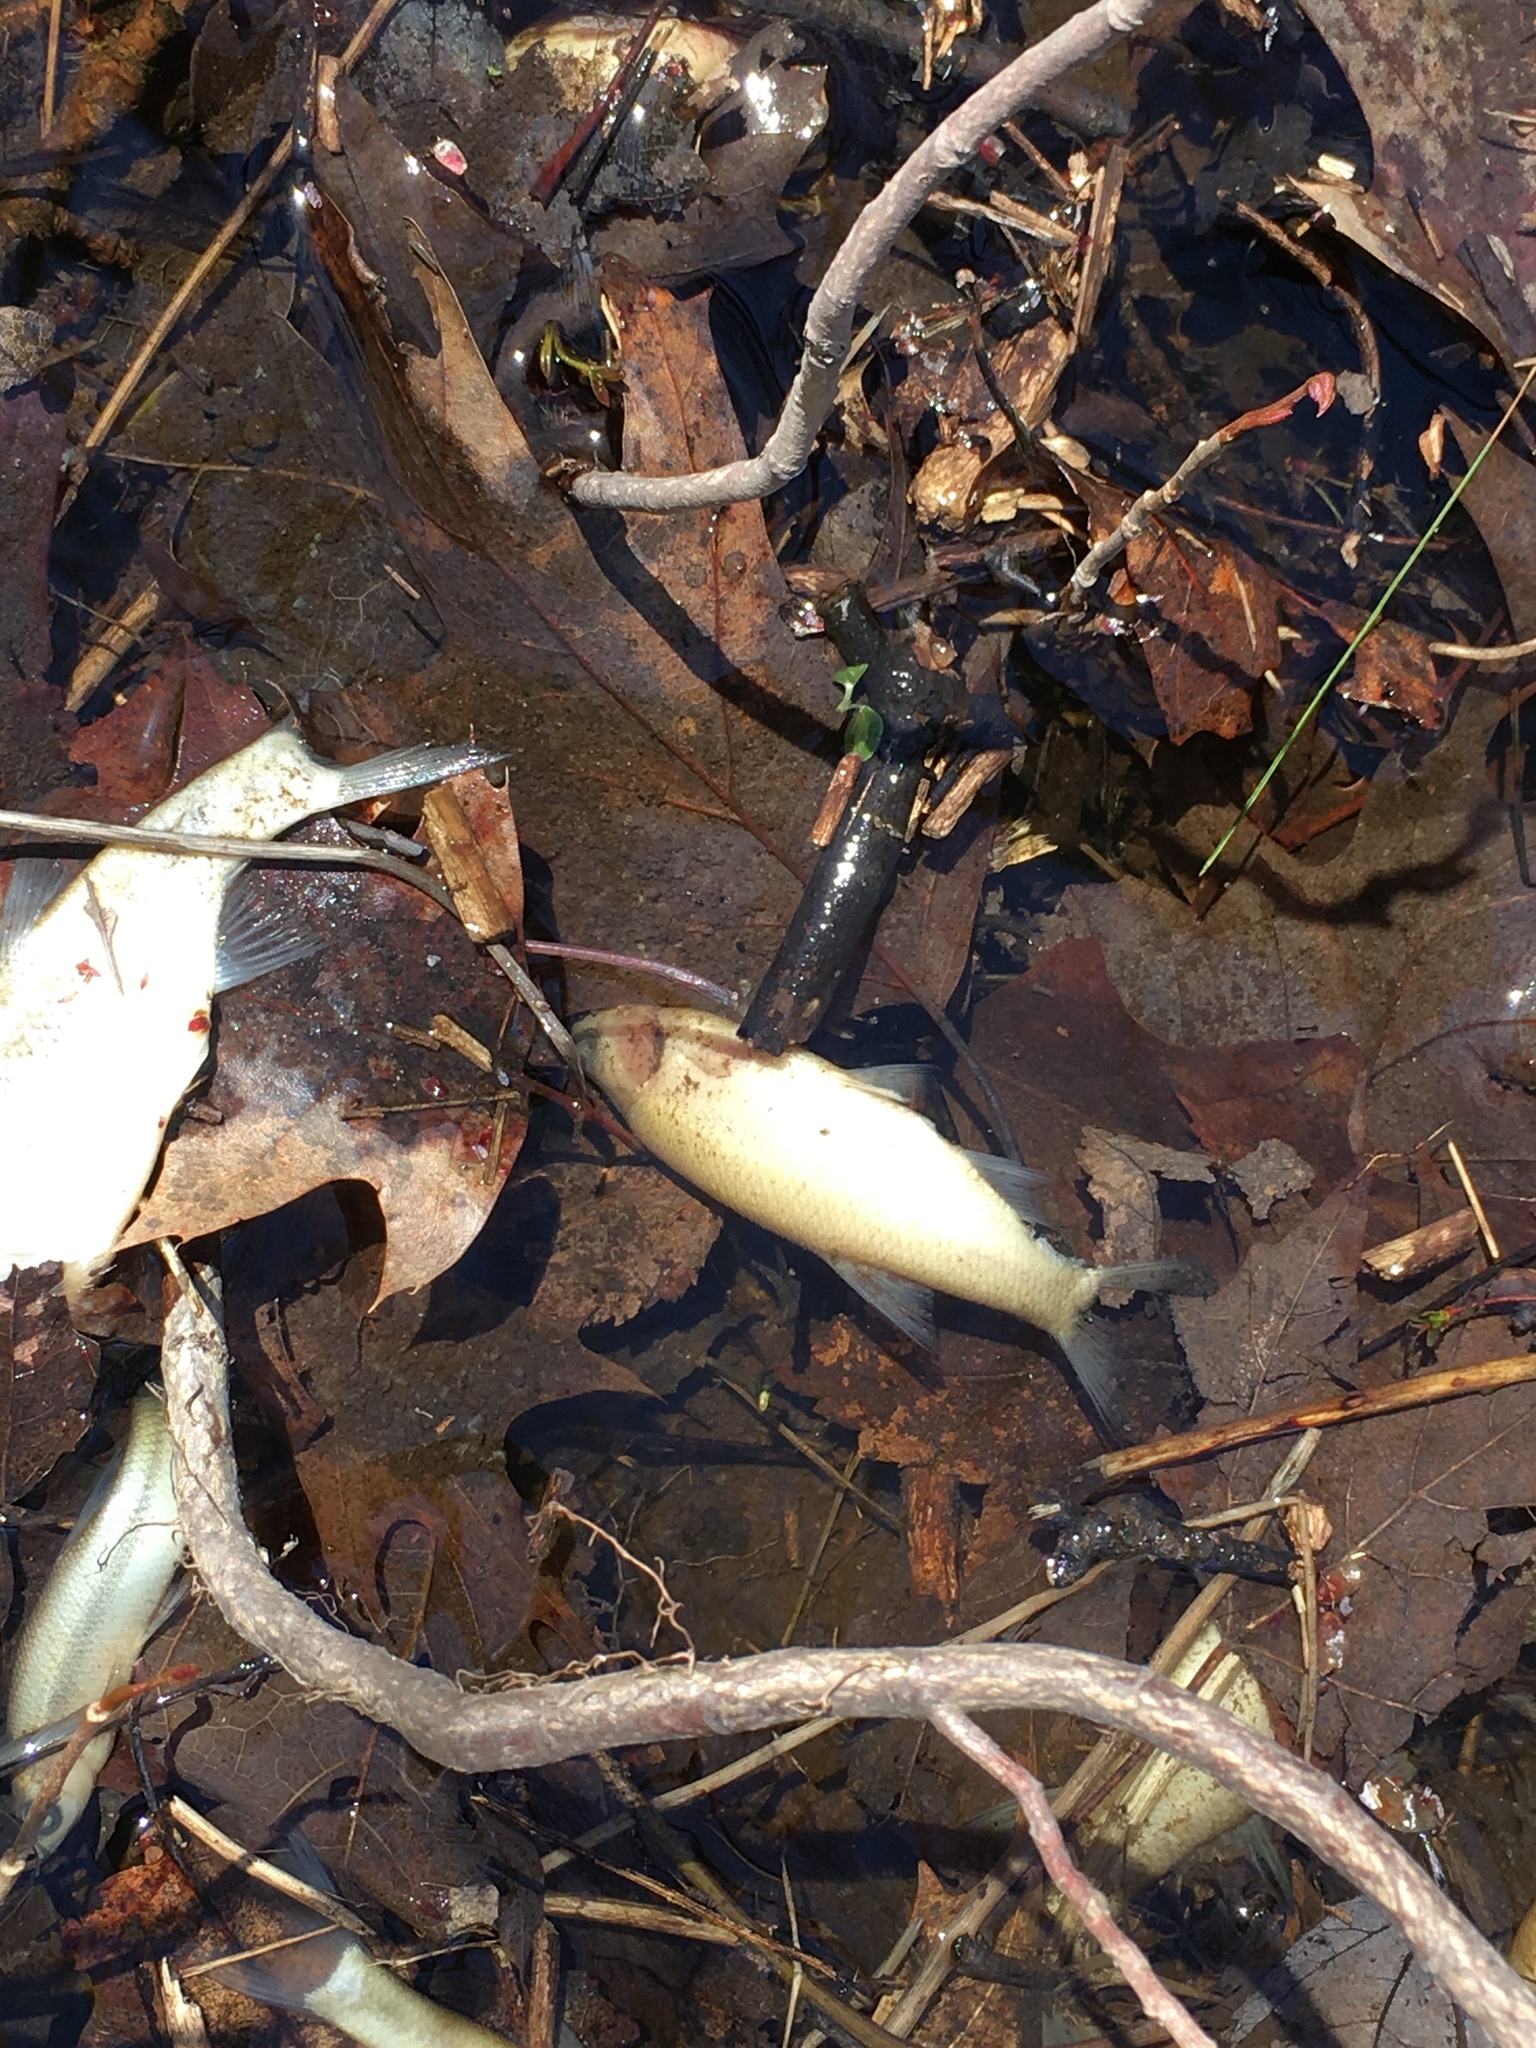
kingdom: Animalia
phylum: Chordata
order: Cypriniformes
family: Cyprinidae
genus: Notemigonus
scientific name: Notemigonus crysoleucas
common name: Golden shiner
